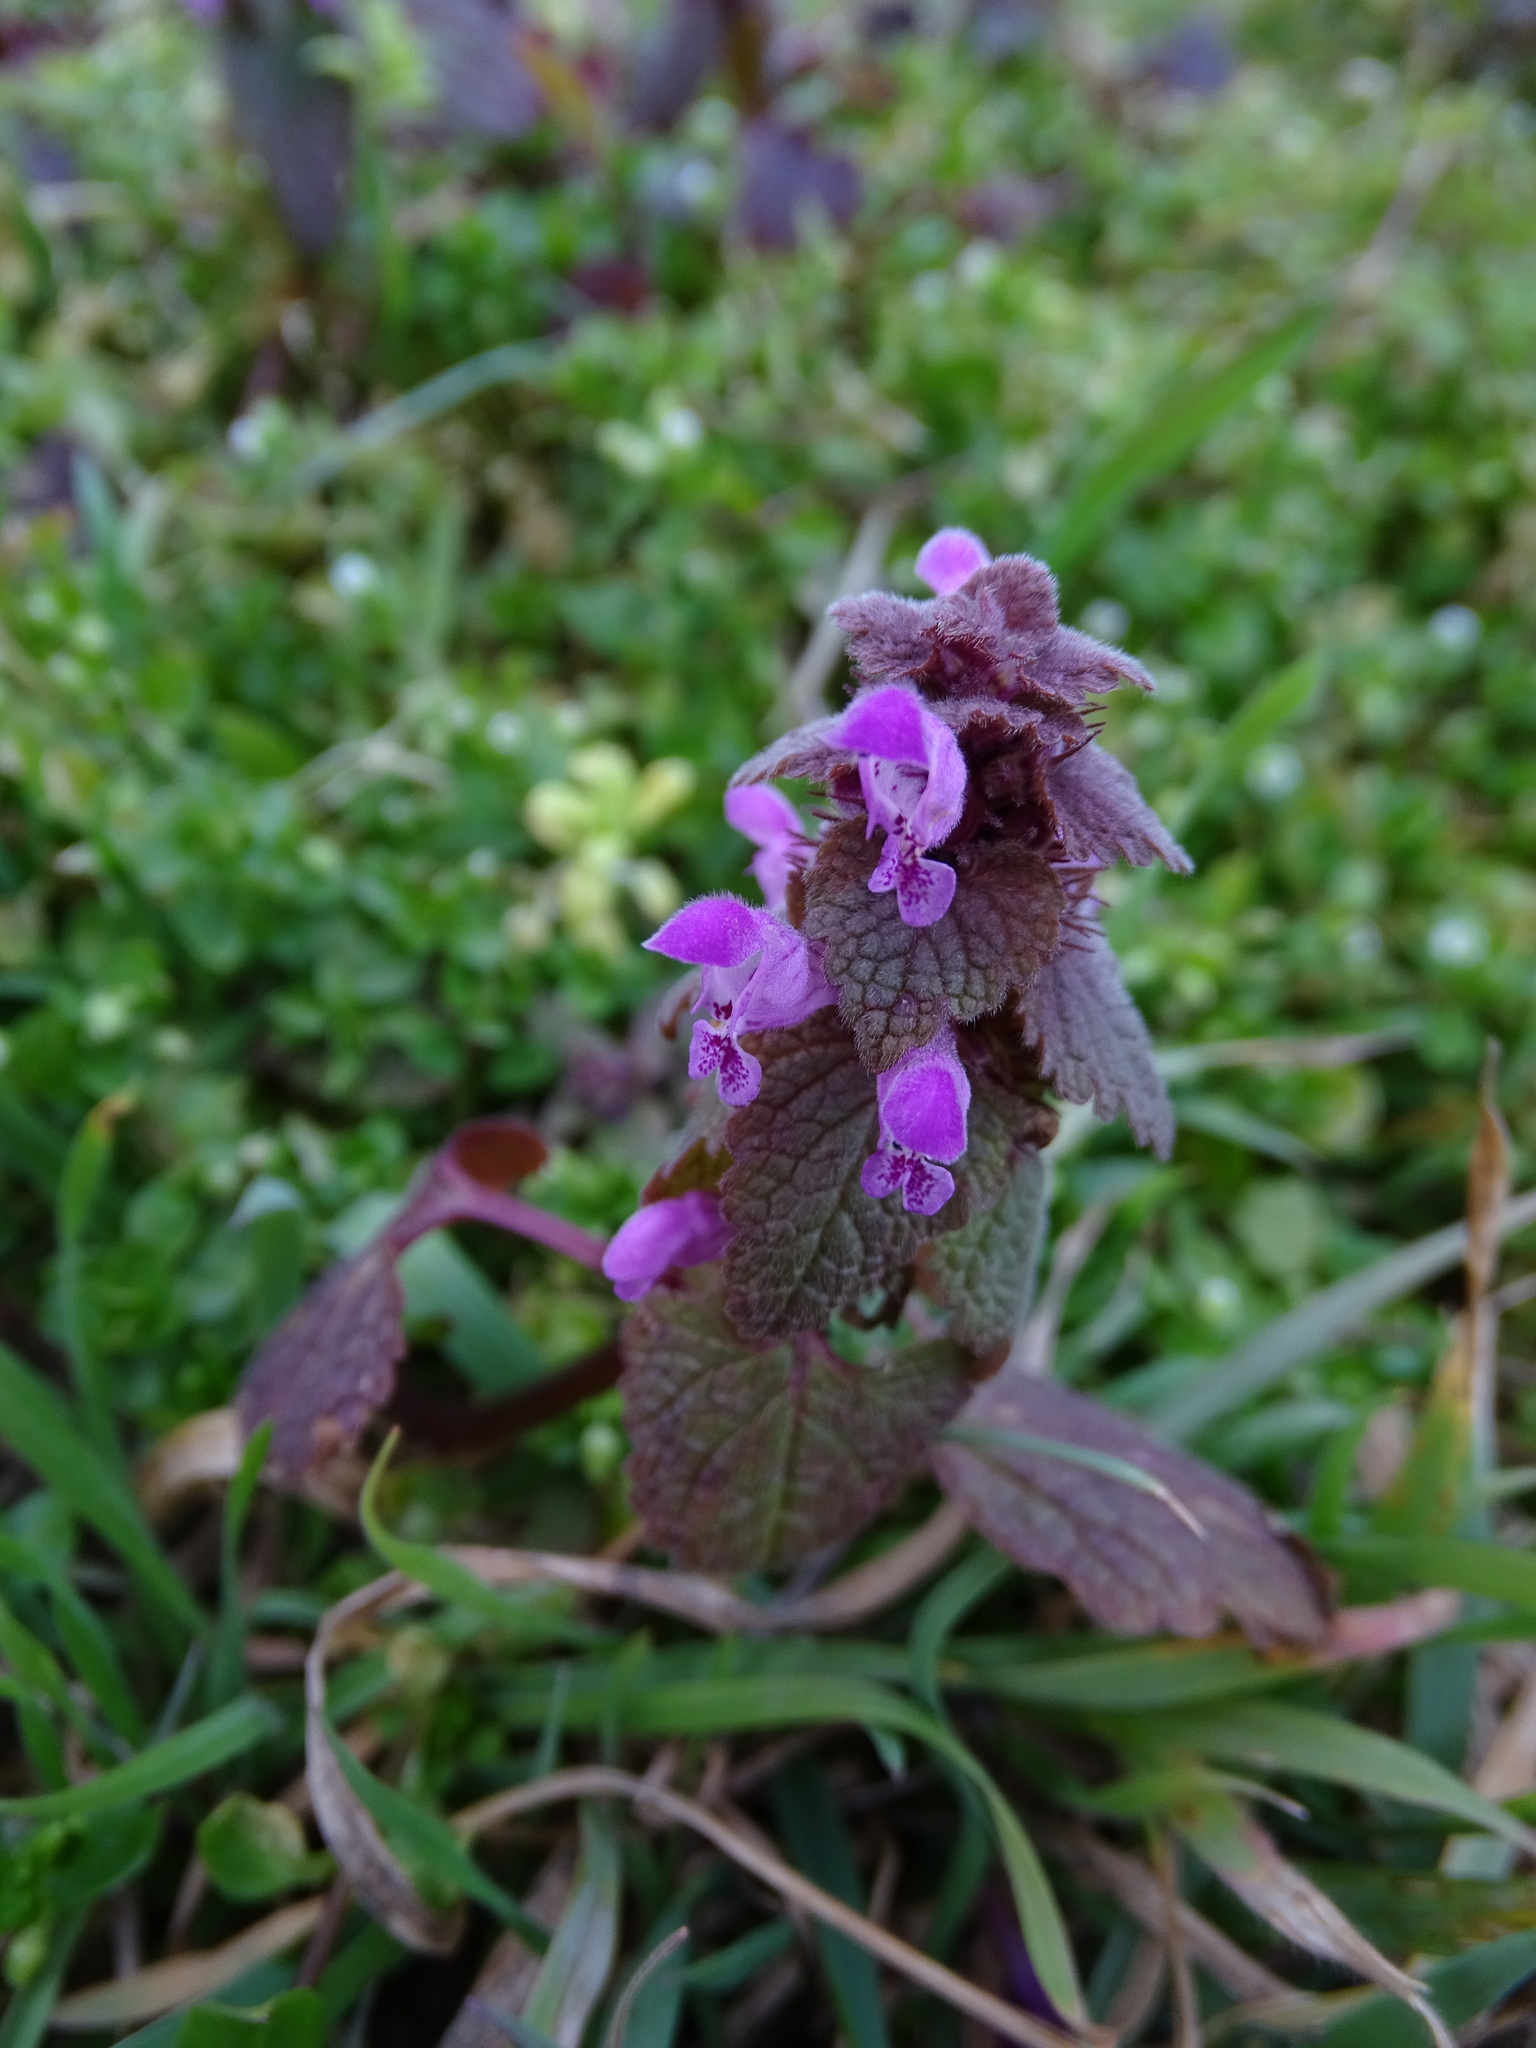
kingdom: Plantae
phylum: Tracheophyta
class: Magnoliopsida
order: Lamiales
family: Lamiaceae
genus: Lamium
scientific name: Lamium purpureum
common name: Red dead-nettle
